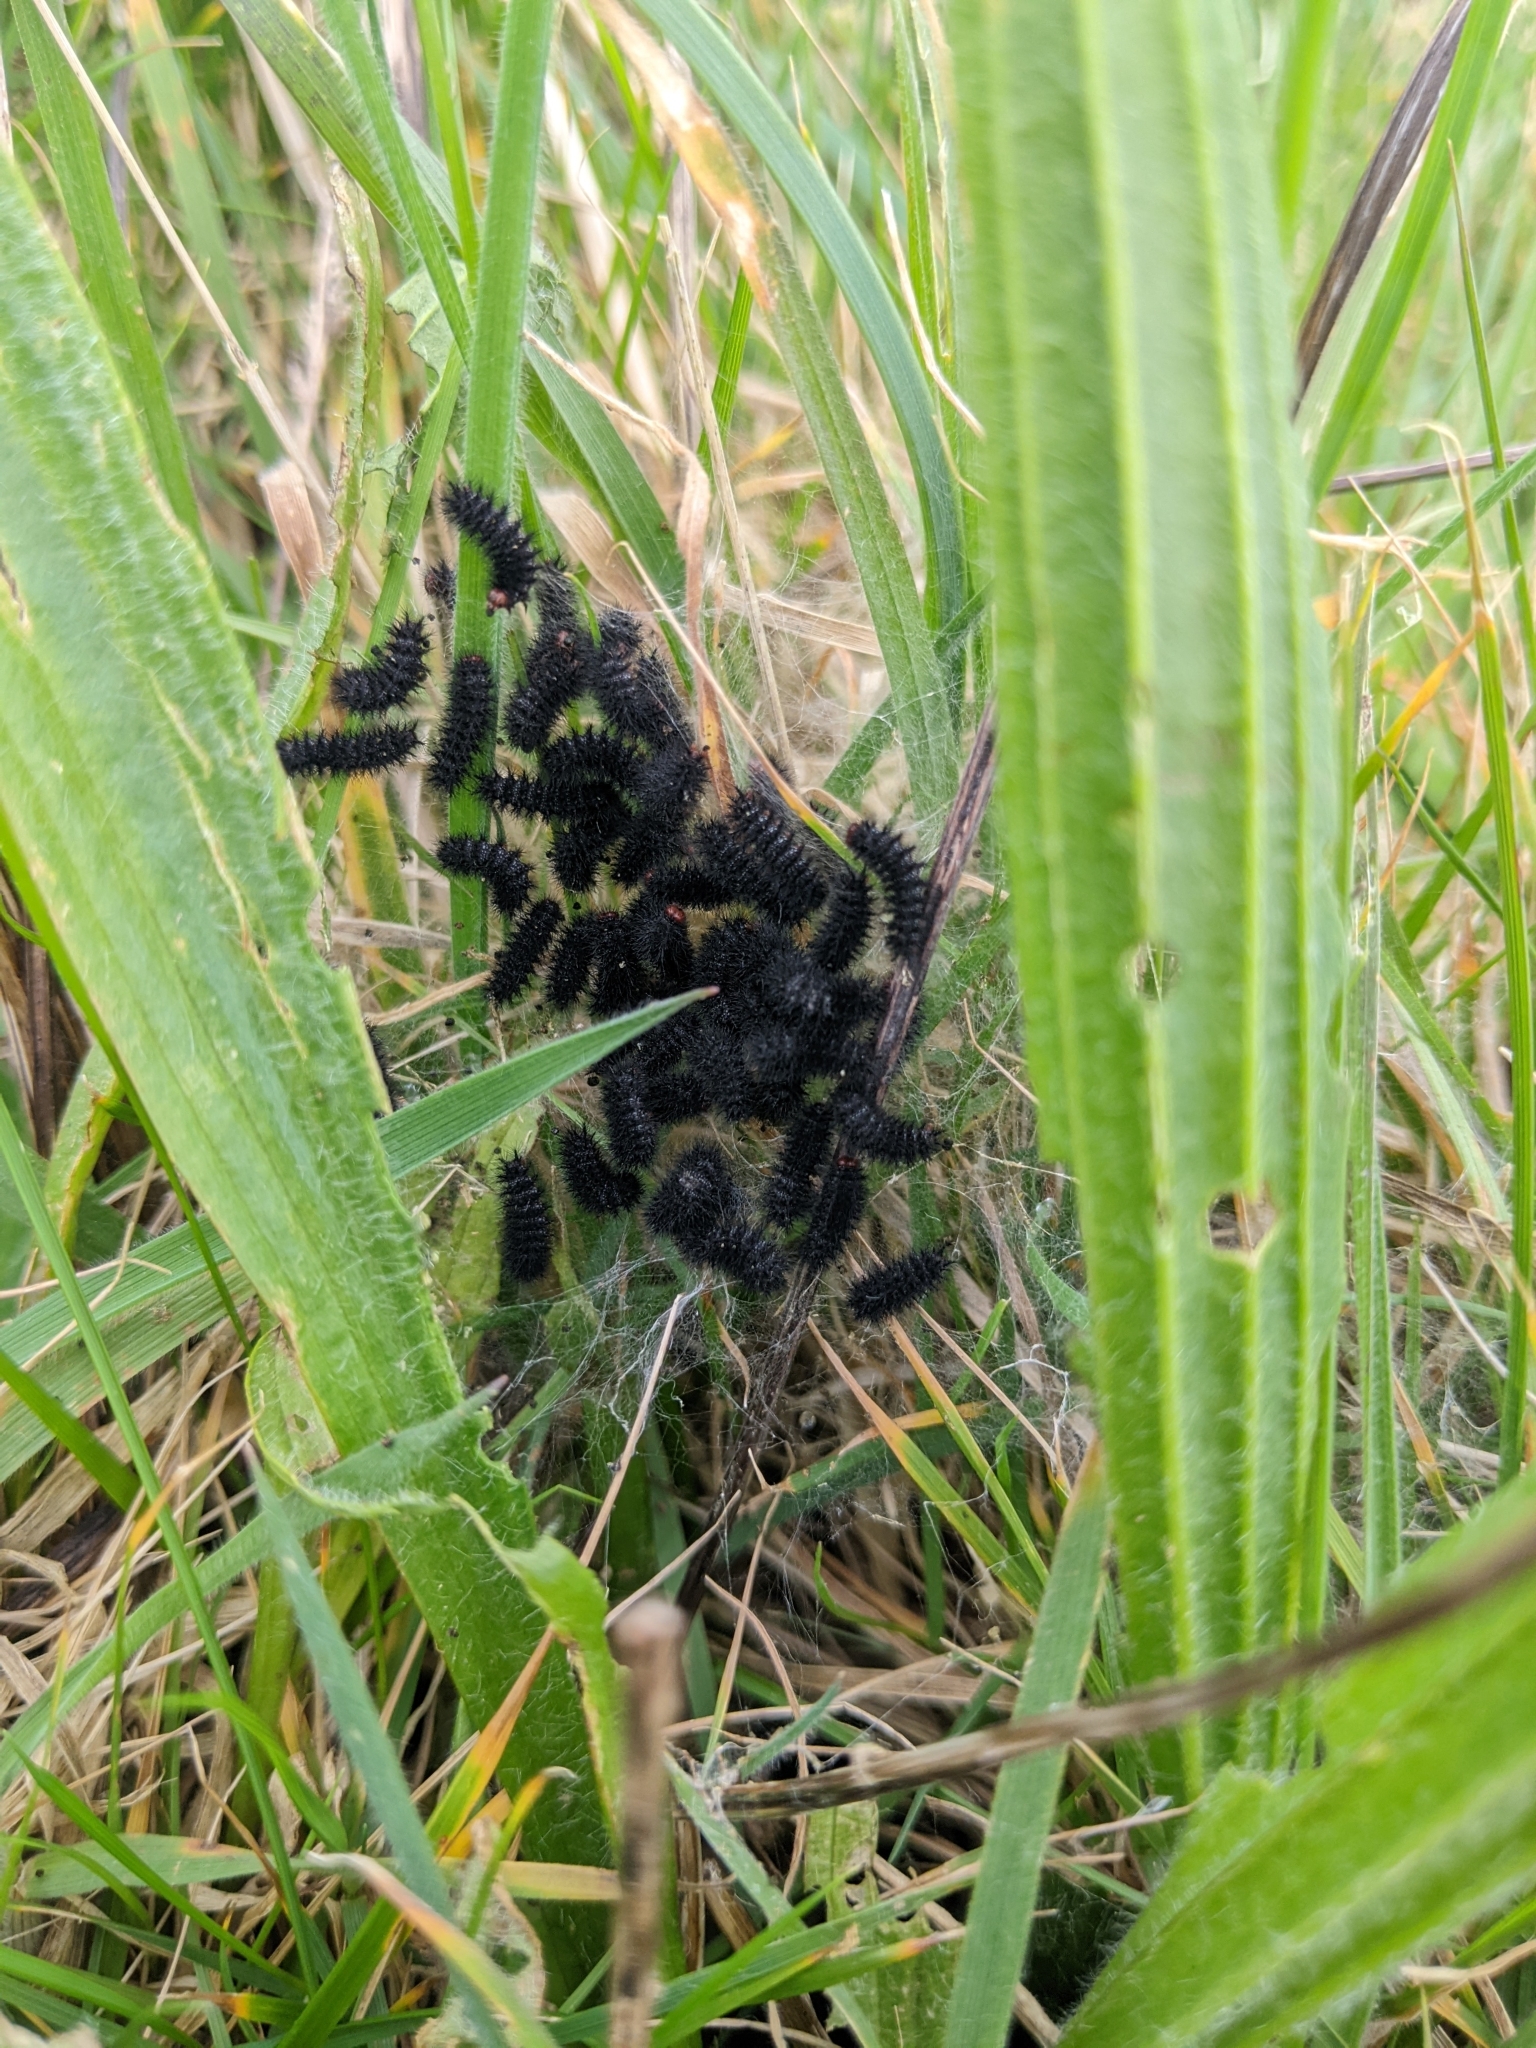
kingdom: Animalia
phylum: Arthropoda
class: Insecta
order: Lepidoptera
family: Nymphalidae
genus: Melitaea
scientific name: Melitaea cinxia
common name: Glanville fritillary
